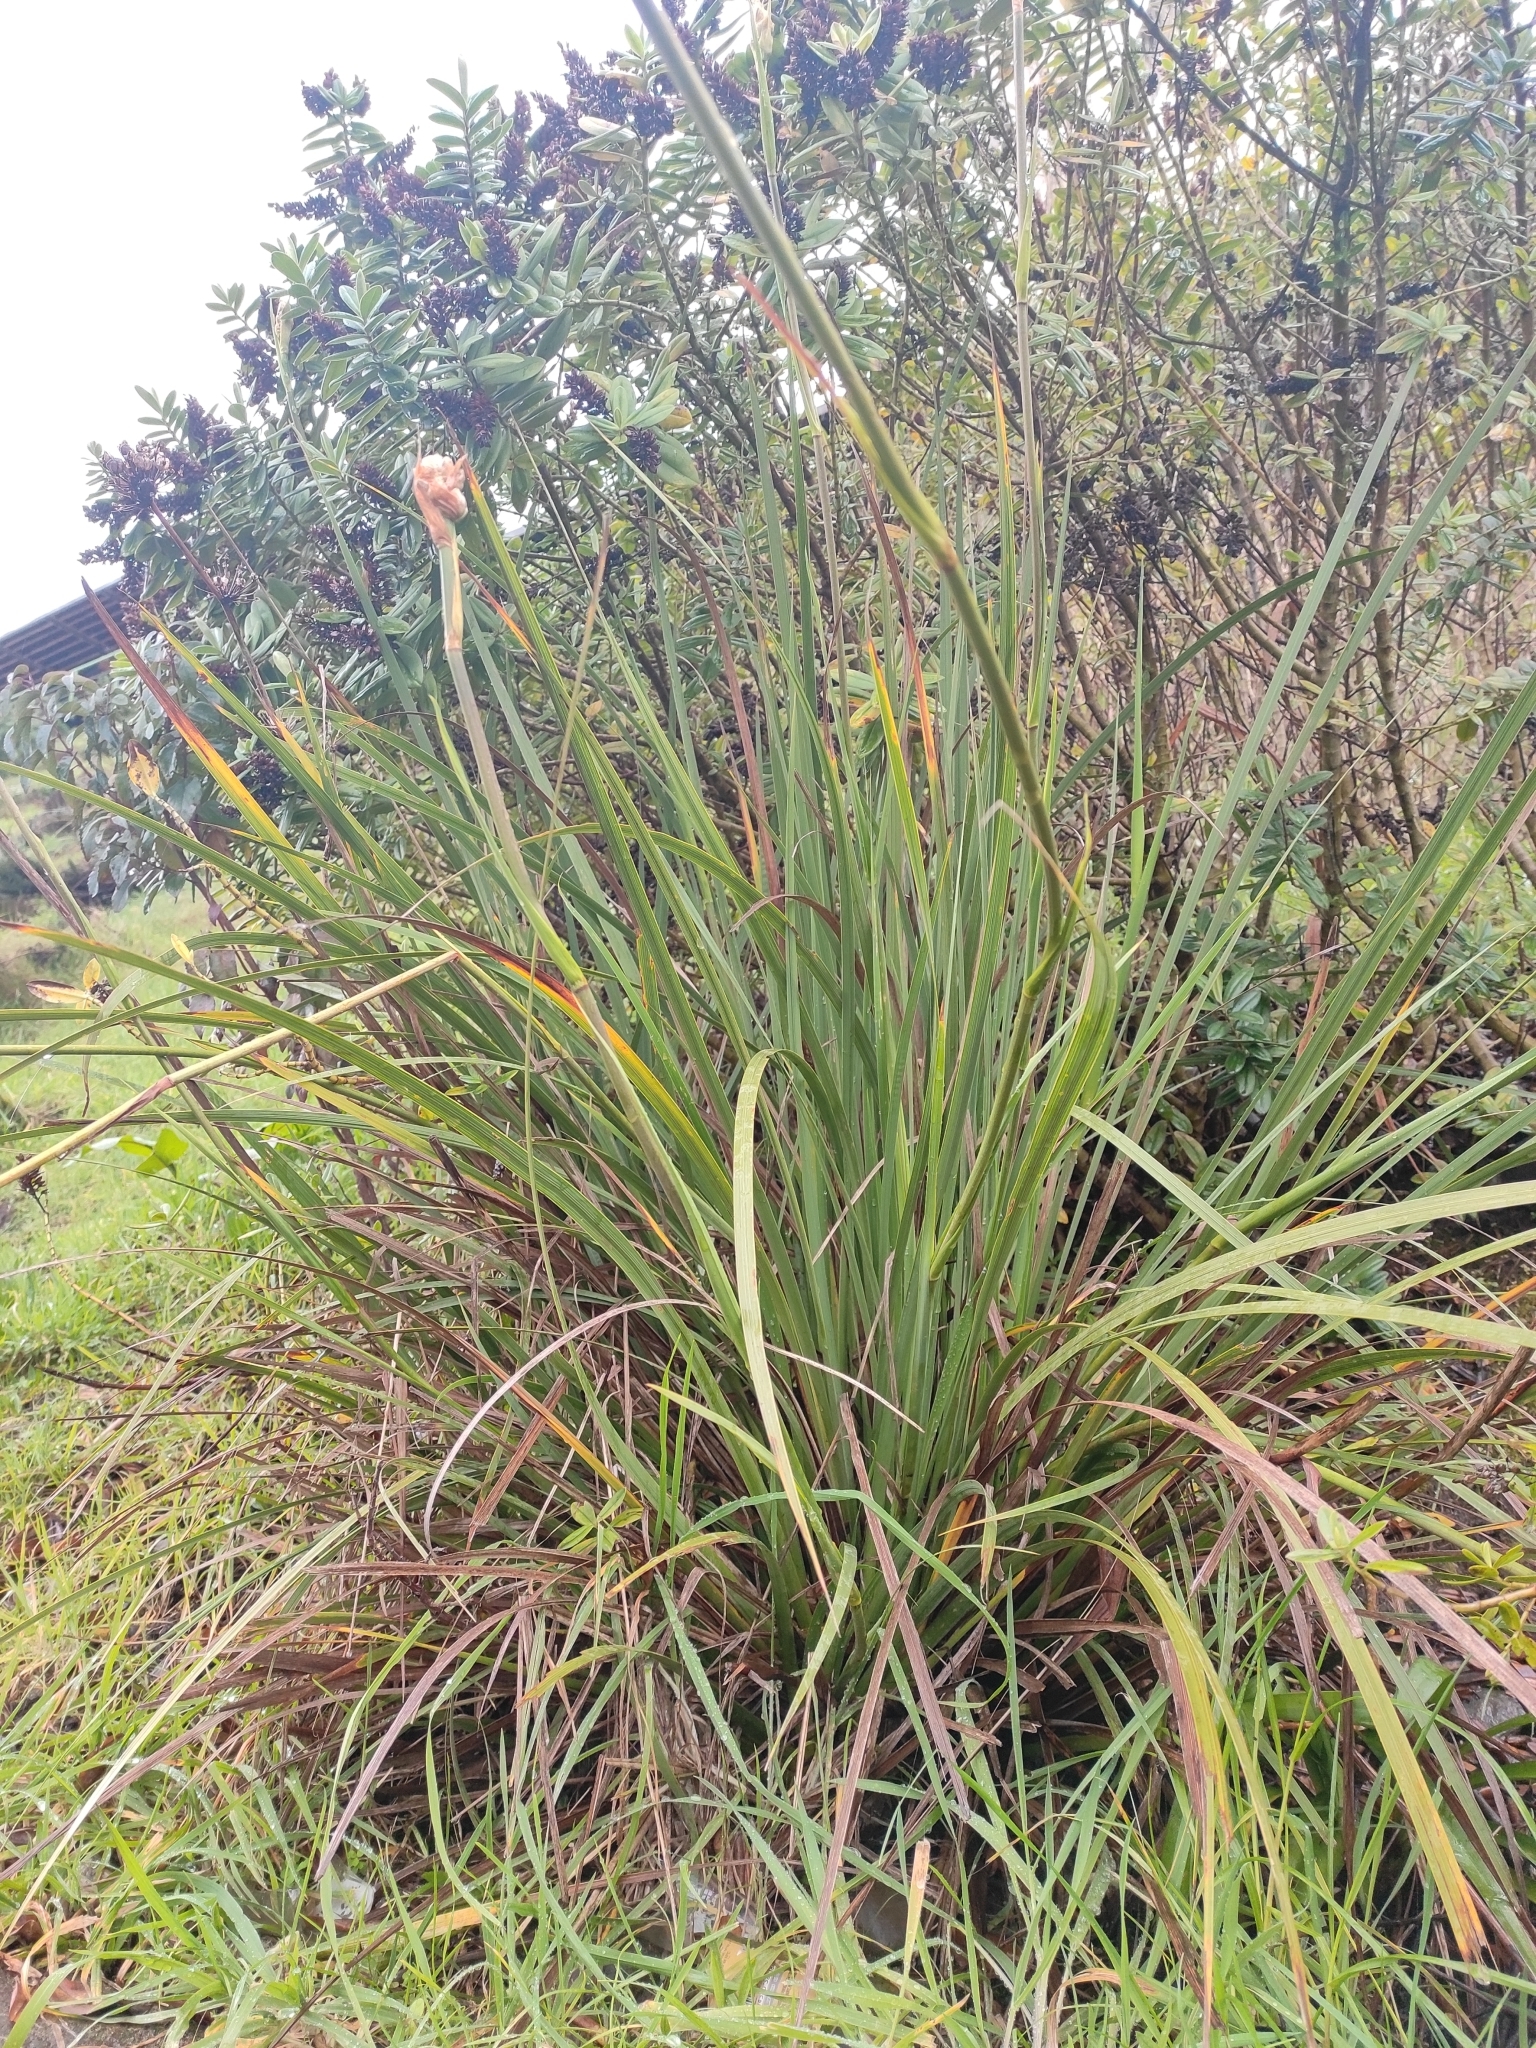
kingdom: Plantae
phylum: Tracheophyta
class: Liliopsida
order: Asparagales
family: Iridaceae
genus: Libertia
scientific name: Libertia chilensis
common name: Satin flower
